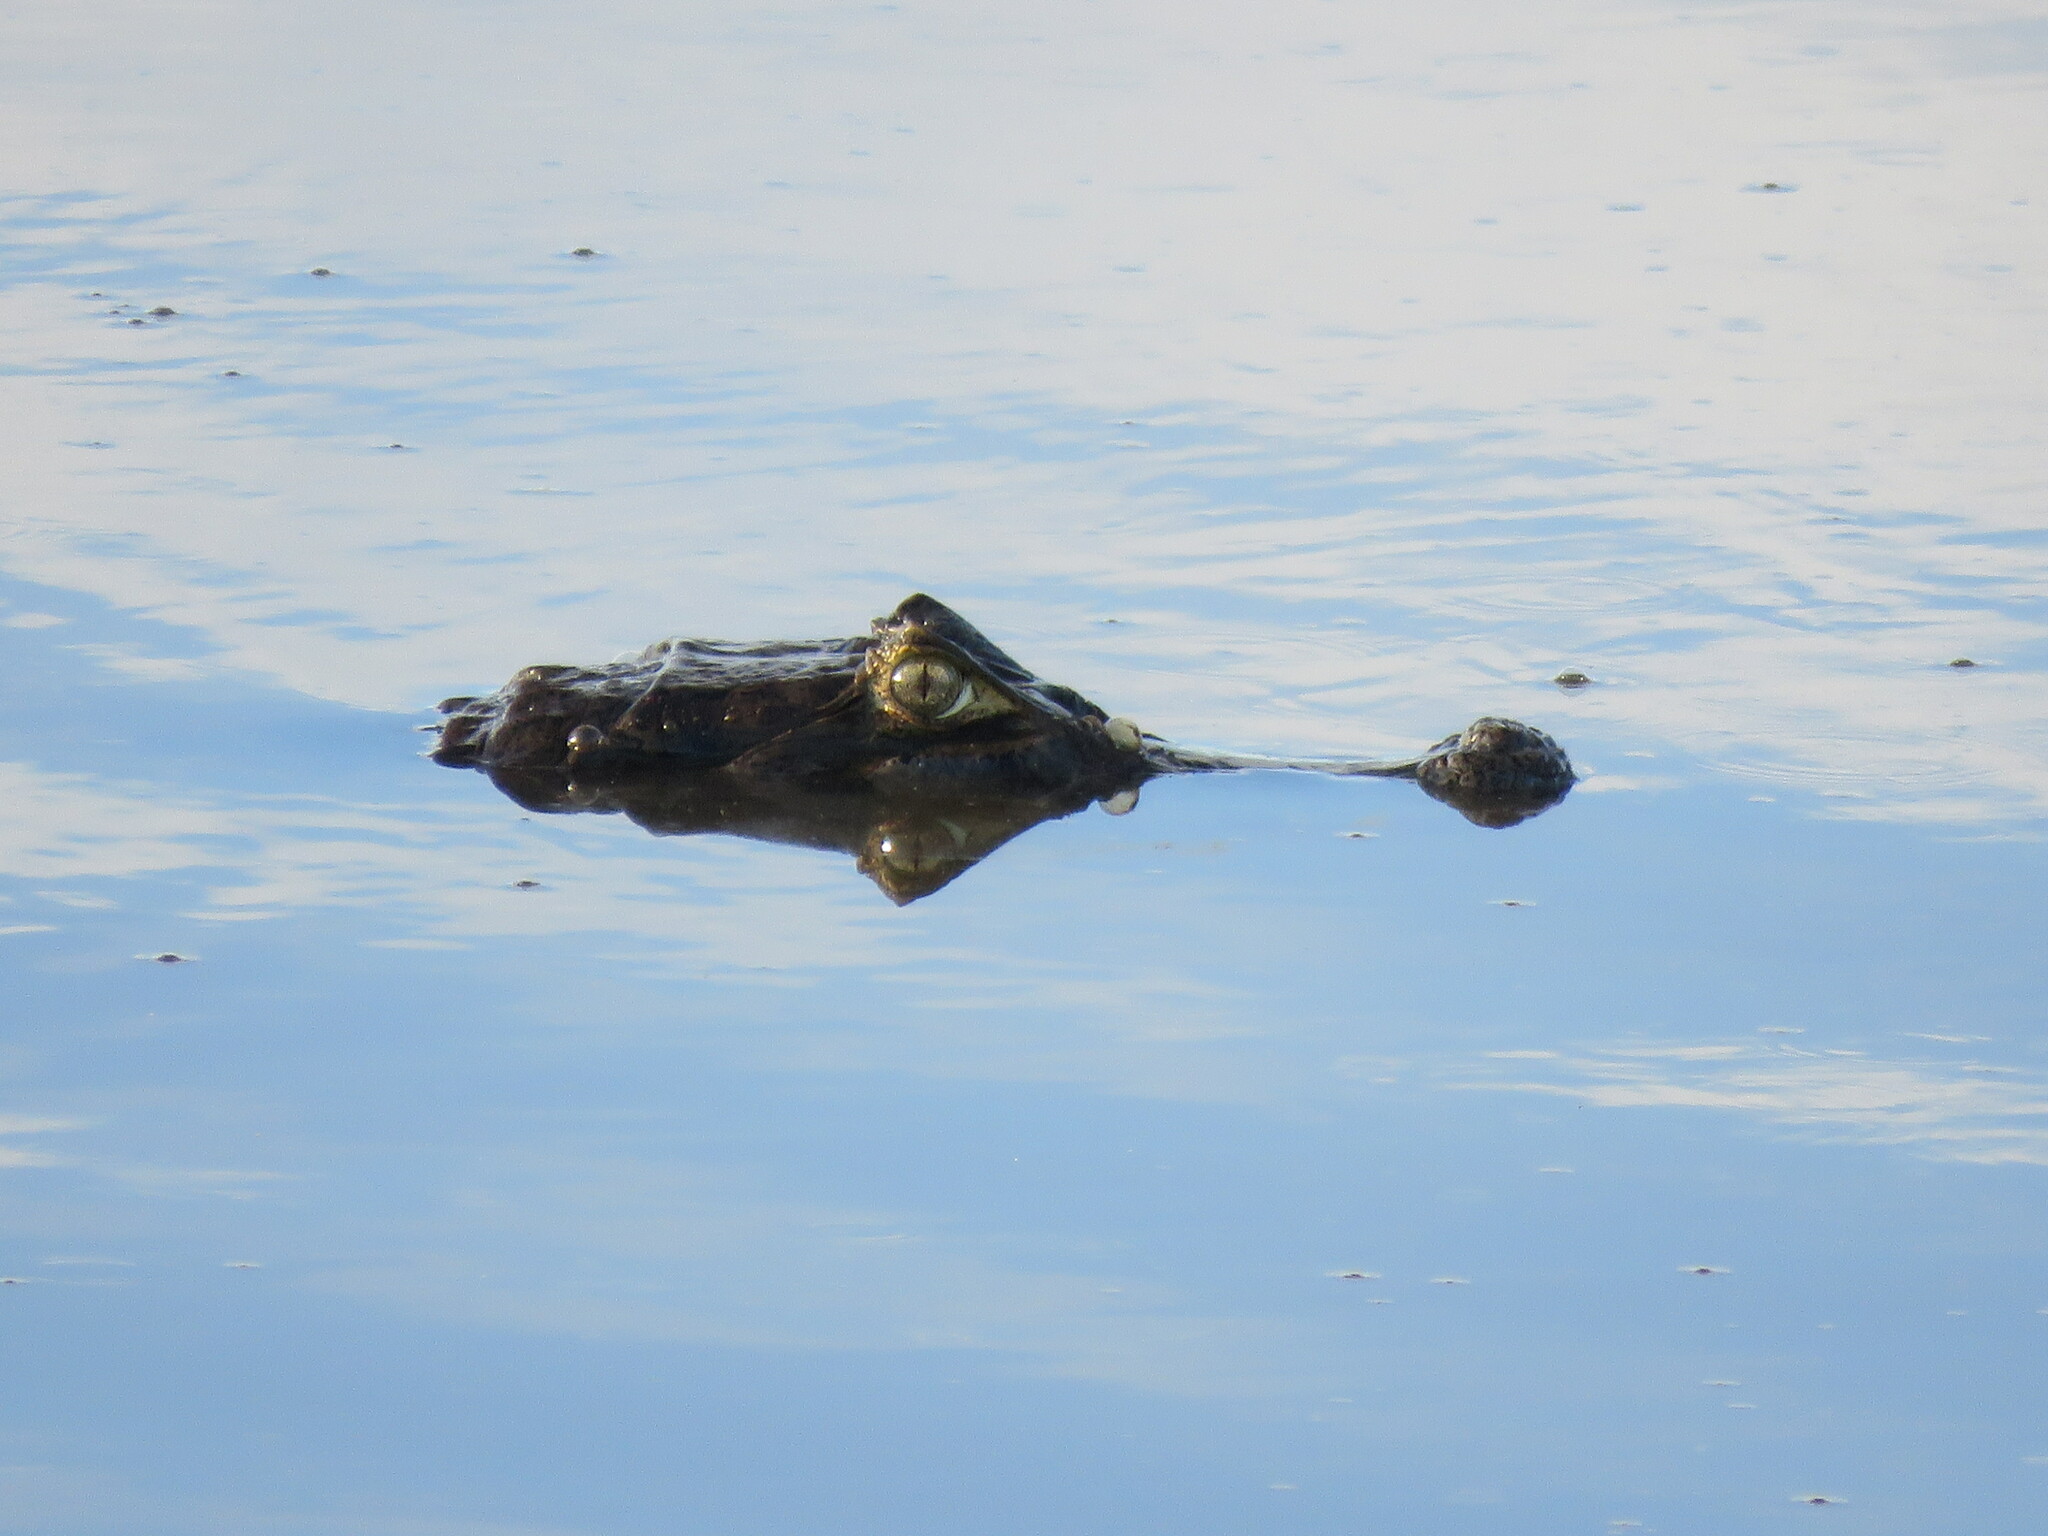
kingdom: Animalia
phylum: Chordata
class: Crocodylia
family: Alligatoridae
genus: Caiman
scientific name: Caiman yacare
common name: Yacare caiman
